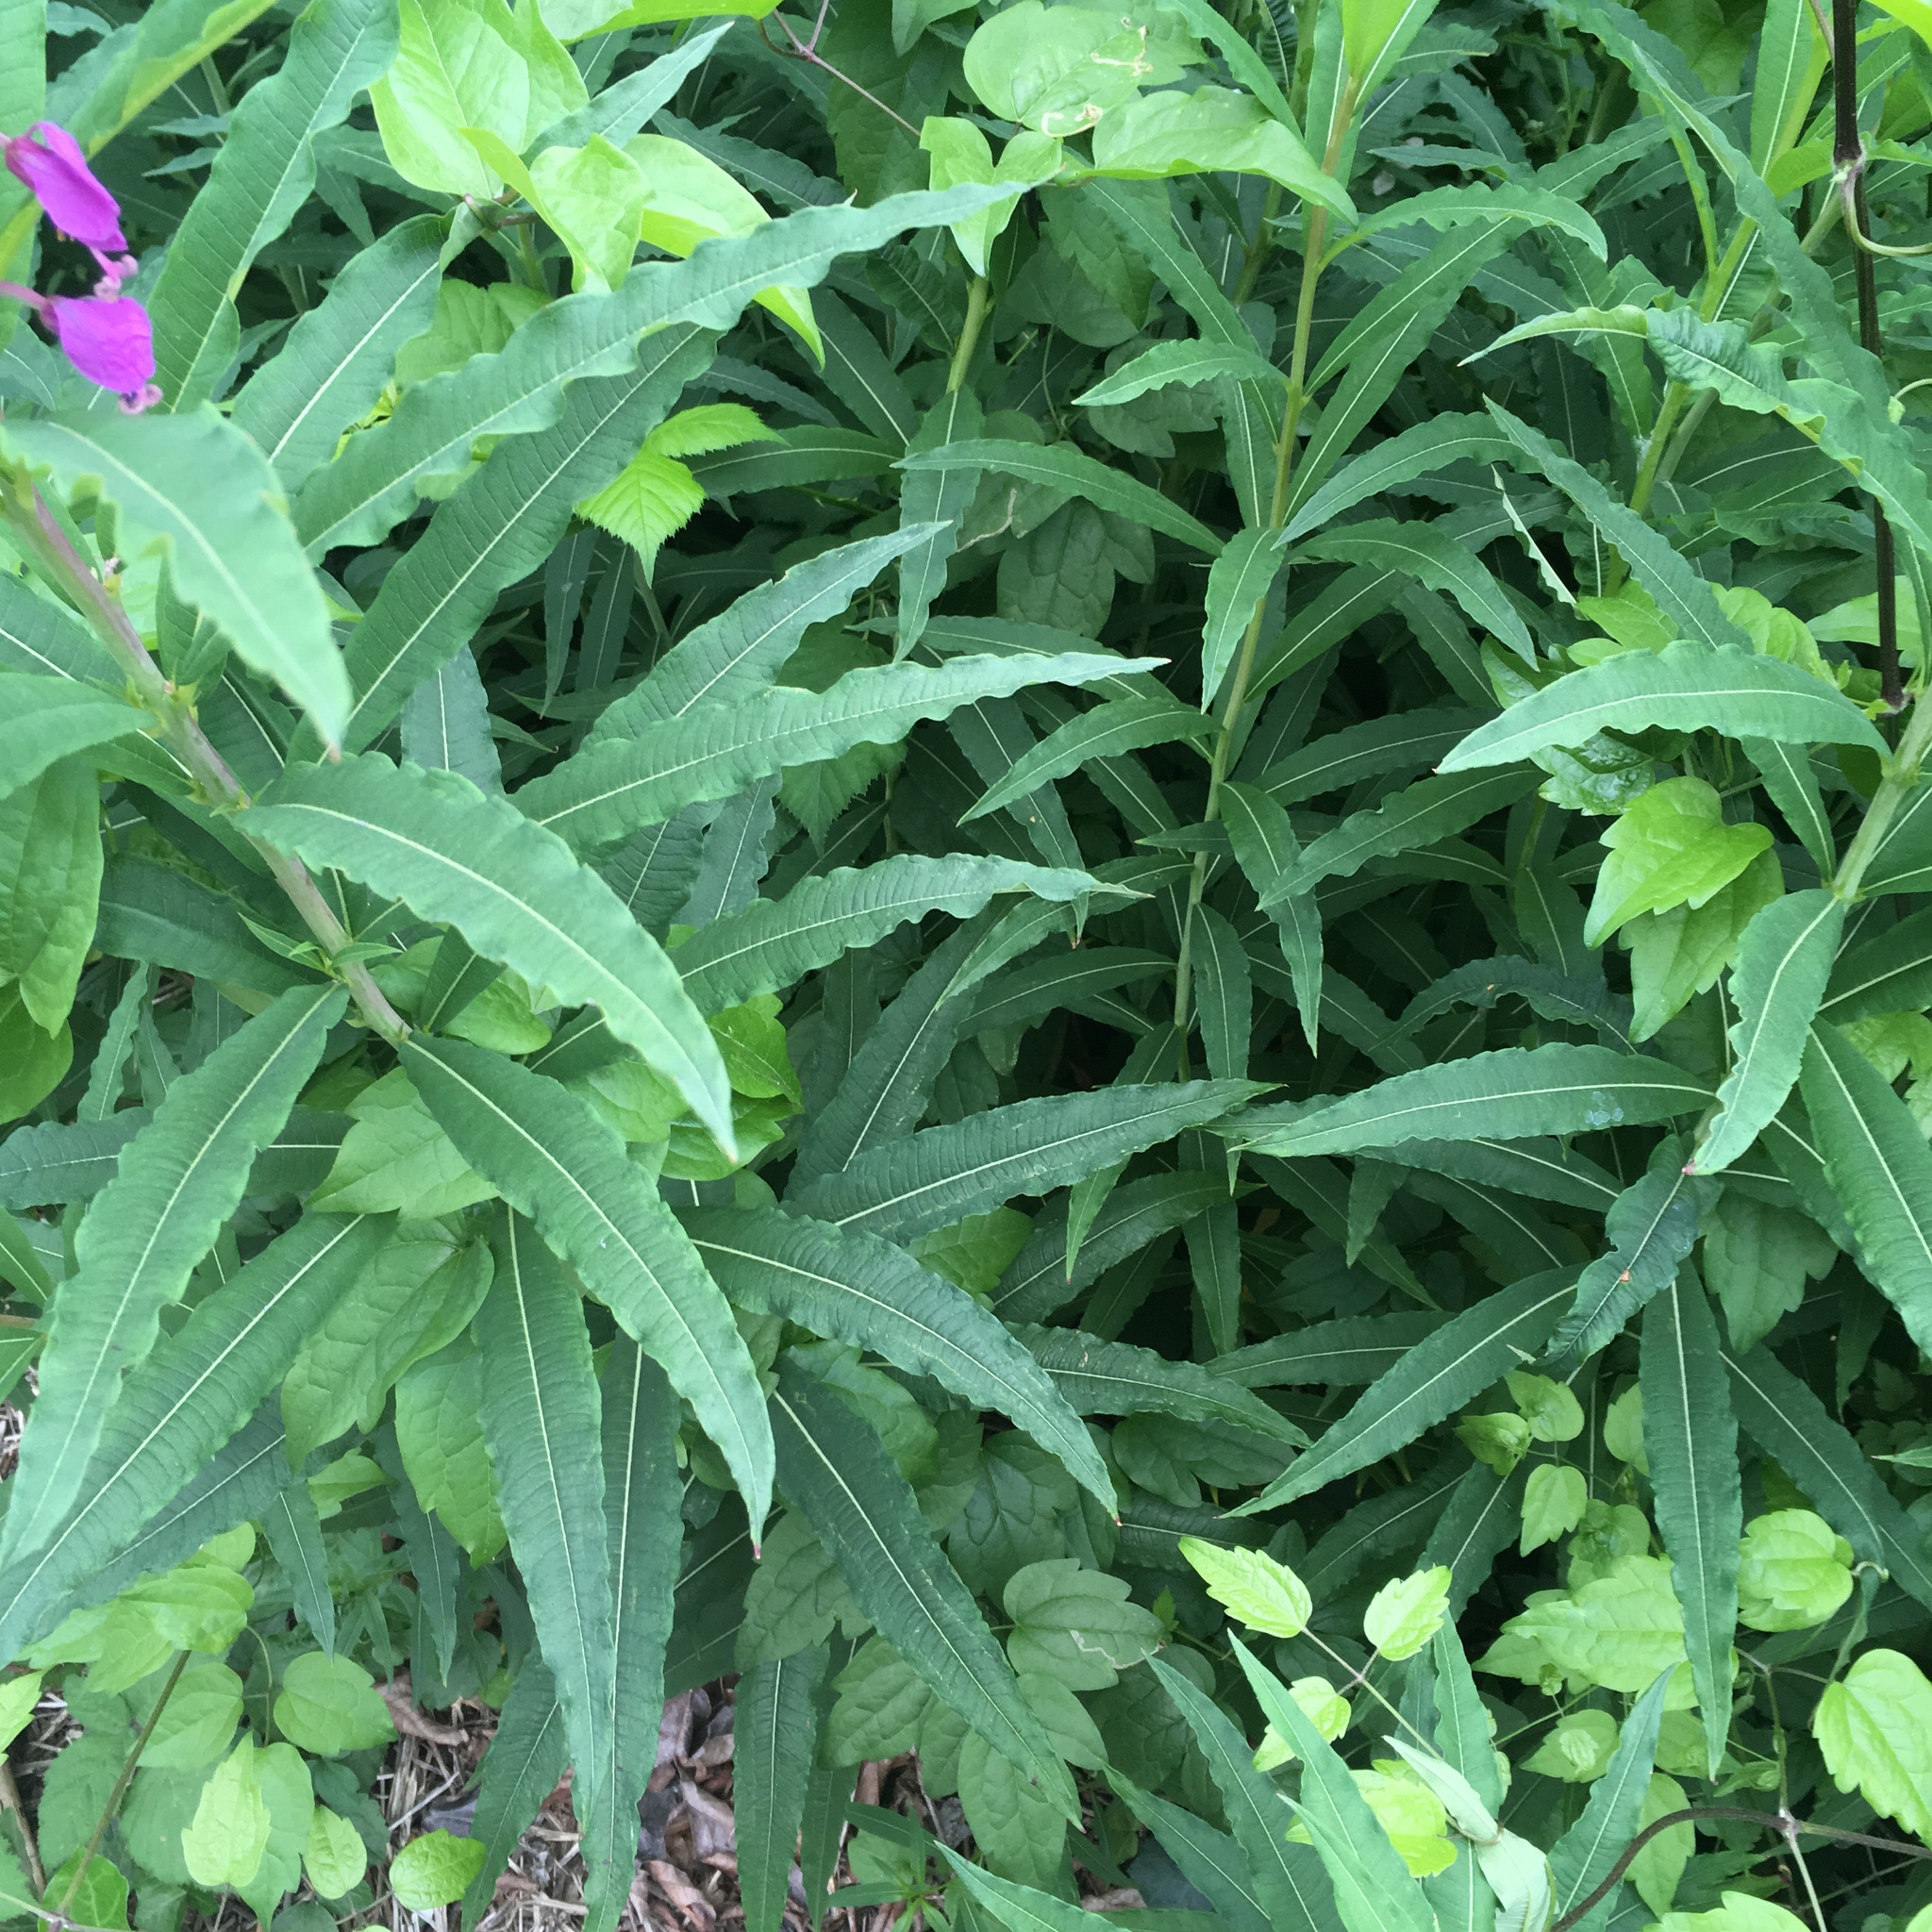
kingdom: Plantae
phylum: Tracheophyta
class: Magnoliopsida
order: Myrtales
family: Onagraceae
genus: Chamaenerion
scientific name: Chamaenerion angustifolium
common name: Fireweed
